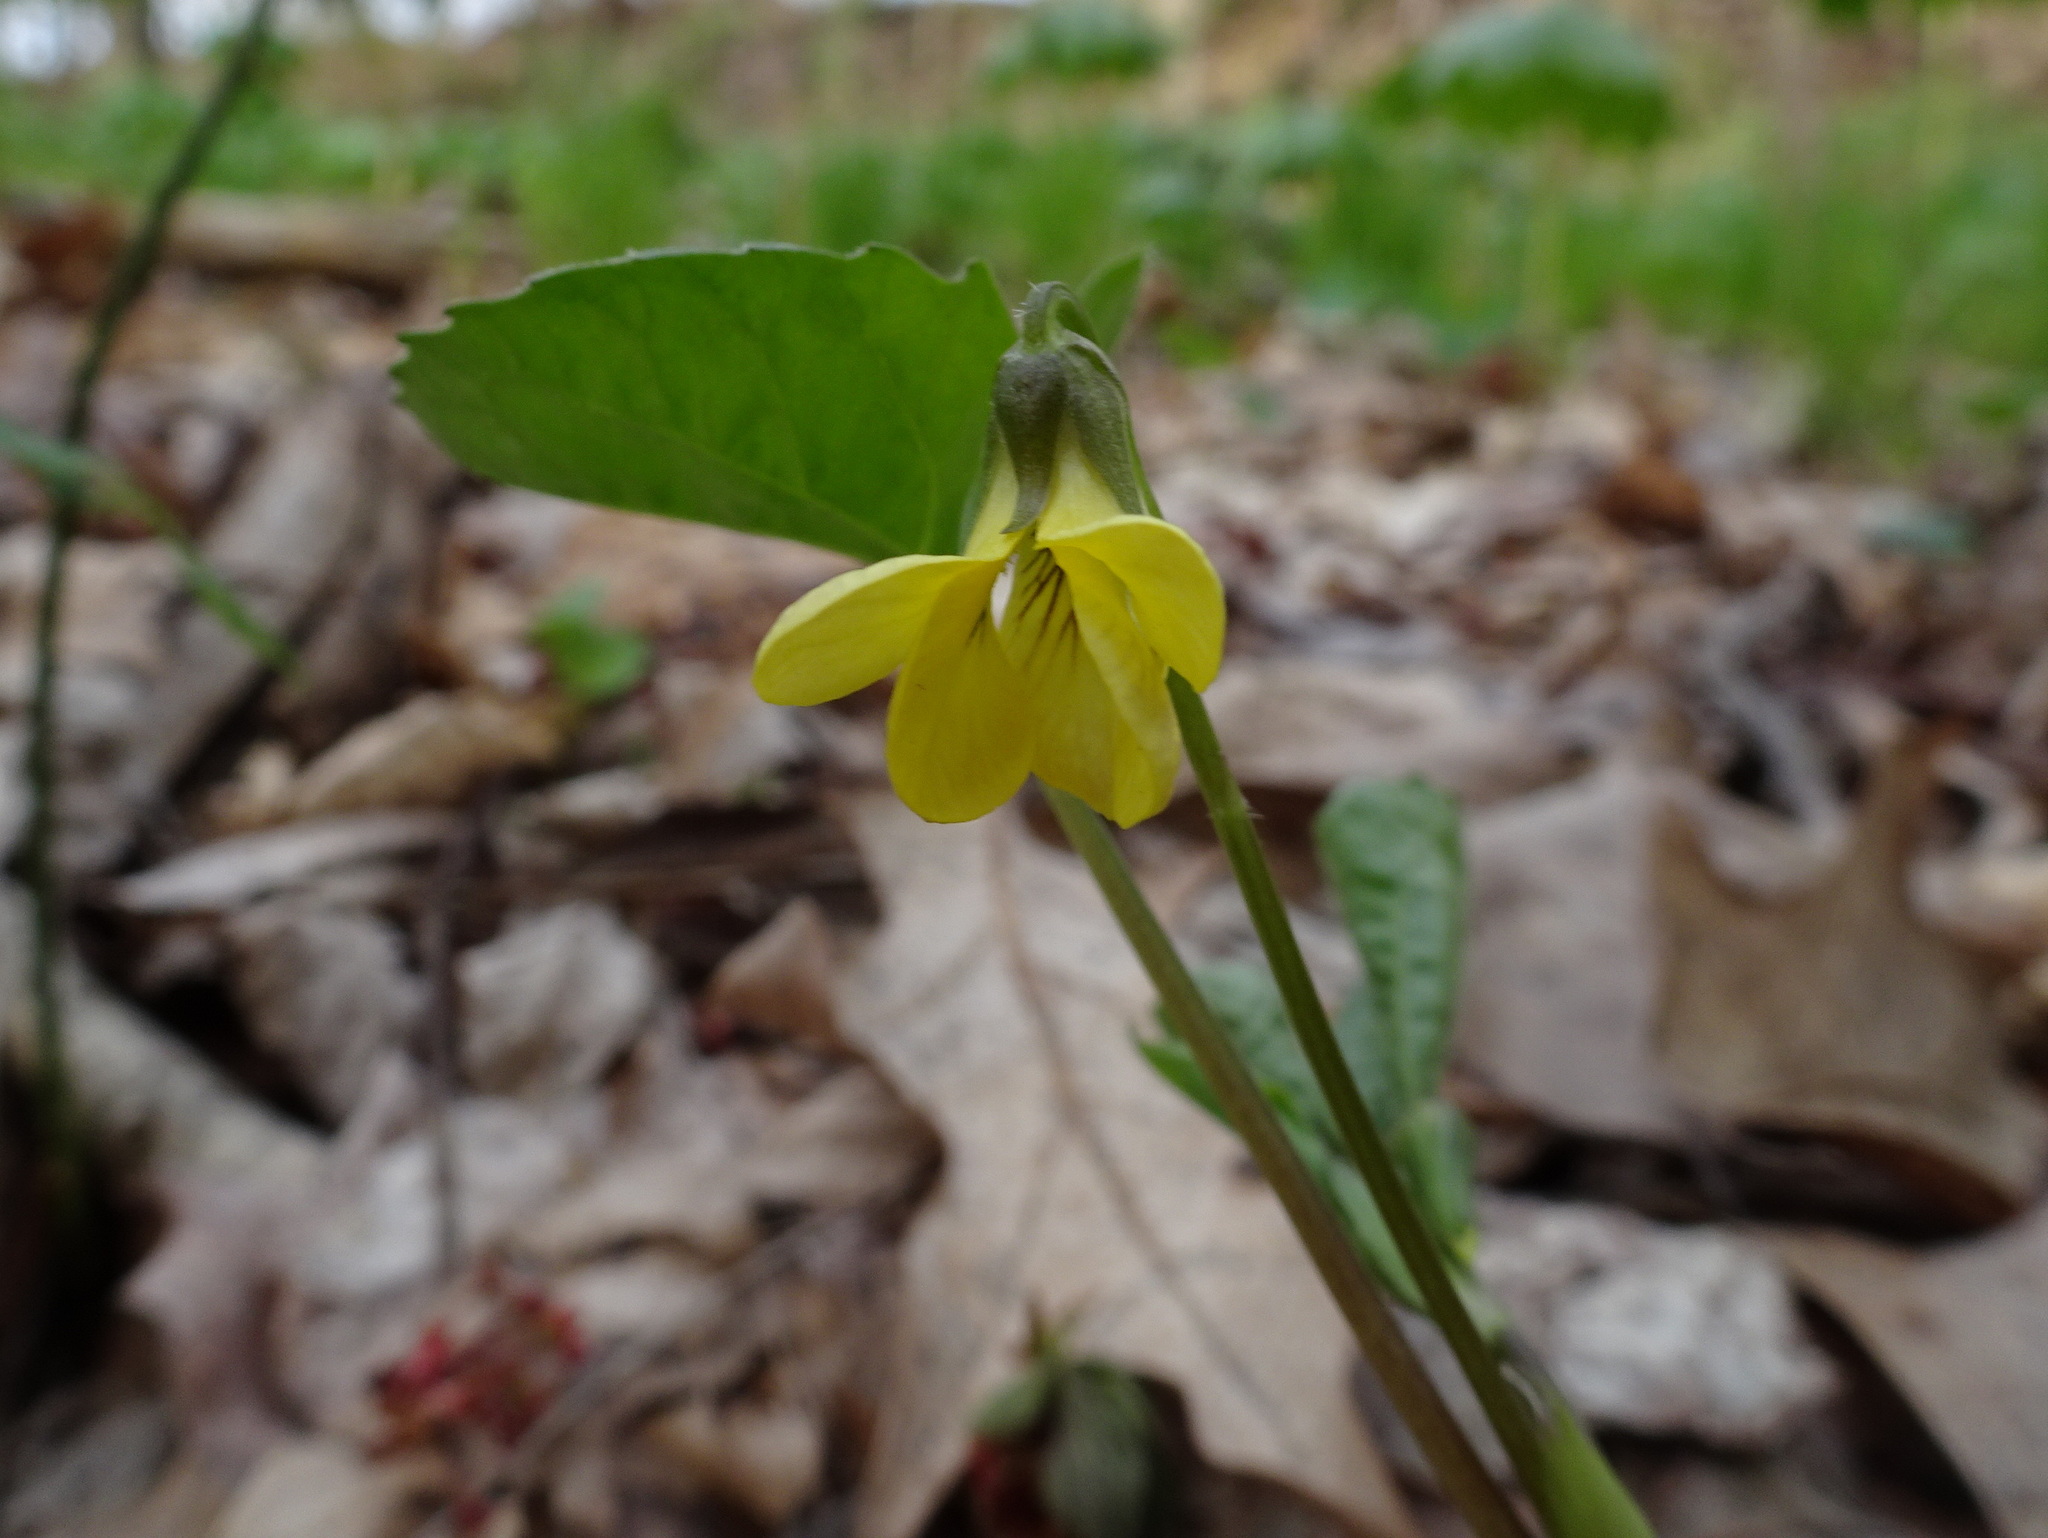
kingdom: Plantae
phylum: Tracheophyta
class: Magnoliopsida
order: Malpighiales
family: Violaceae
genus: Viola
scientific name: Viola eriocarpa
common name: Smooth yellow violet
